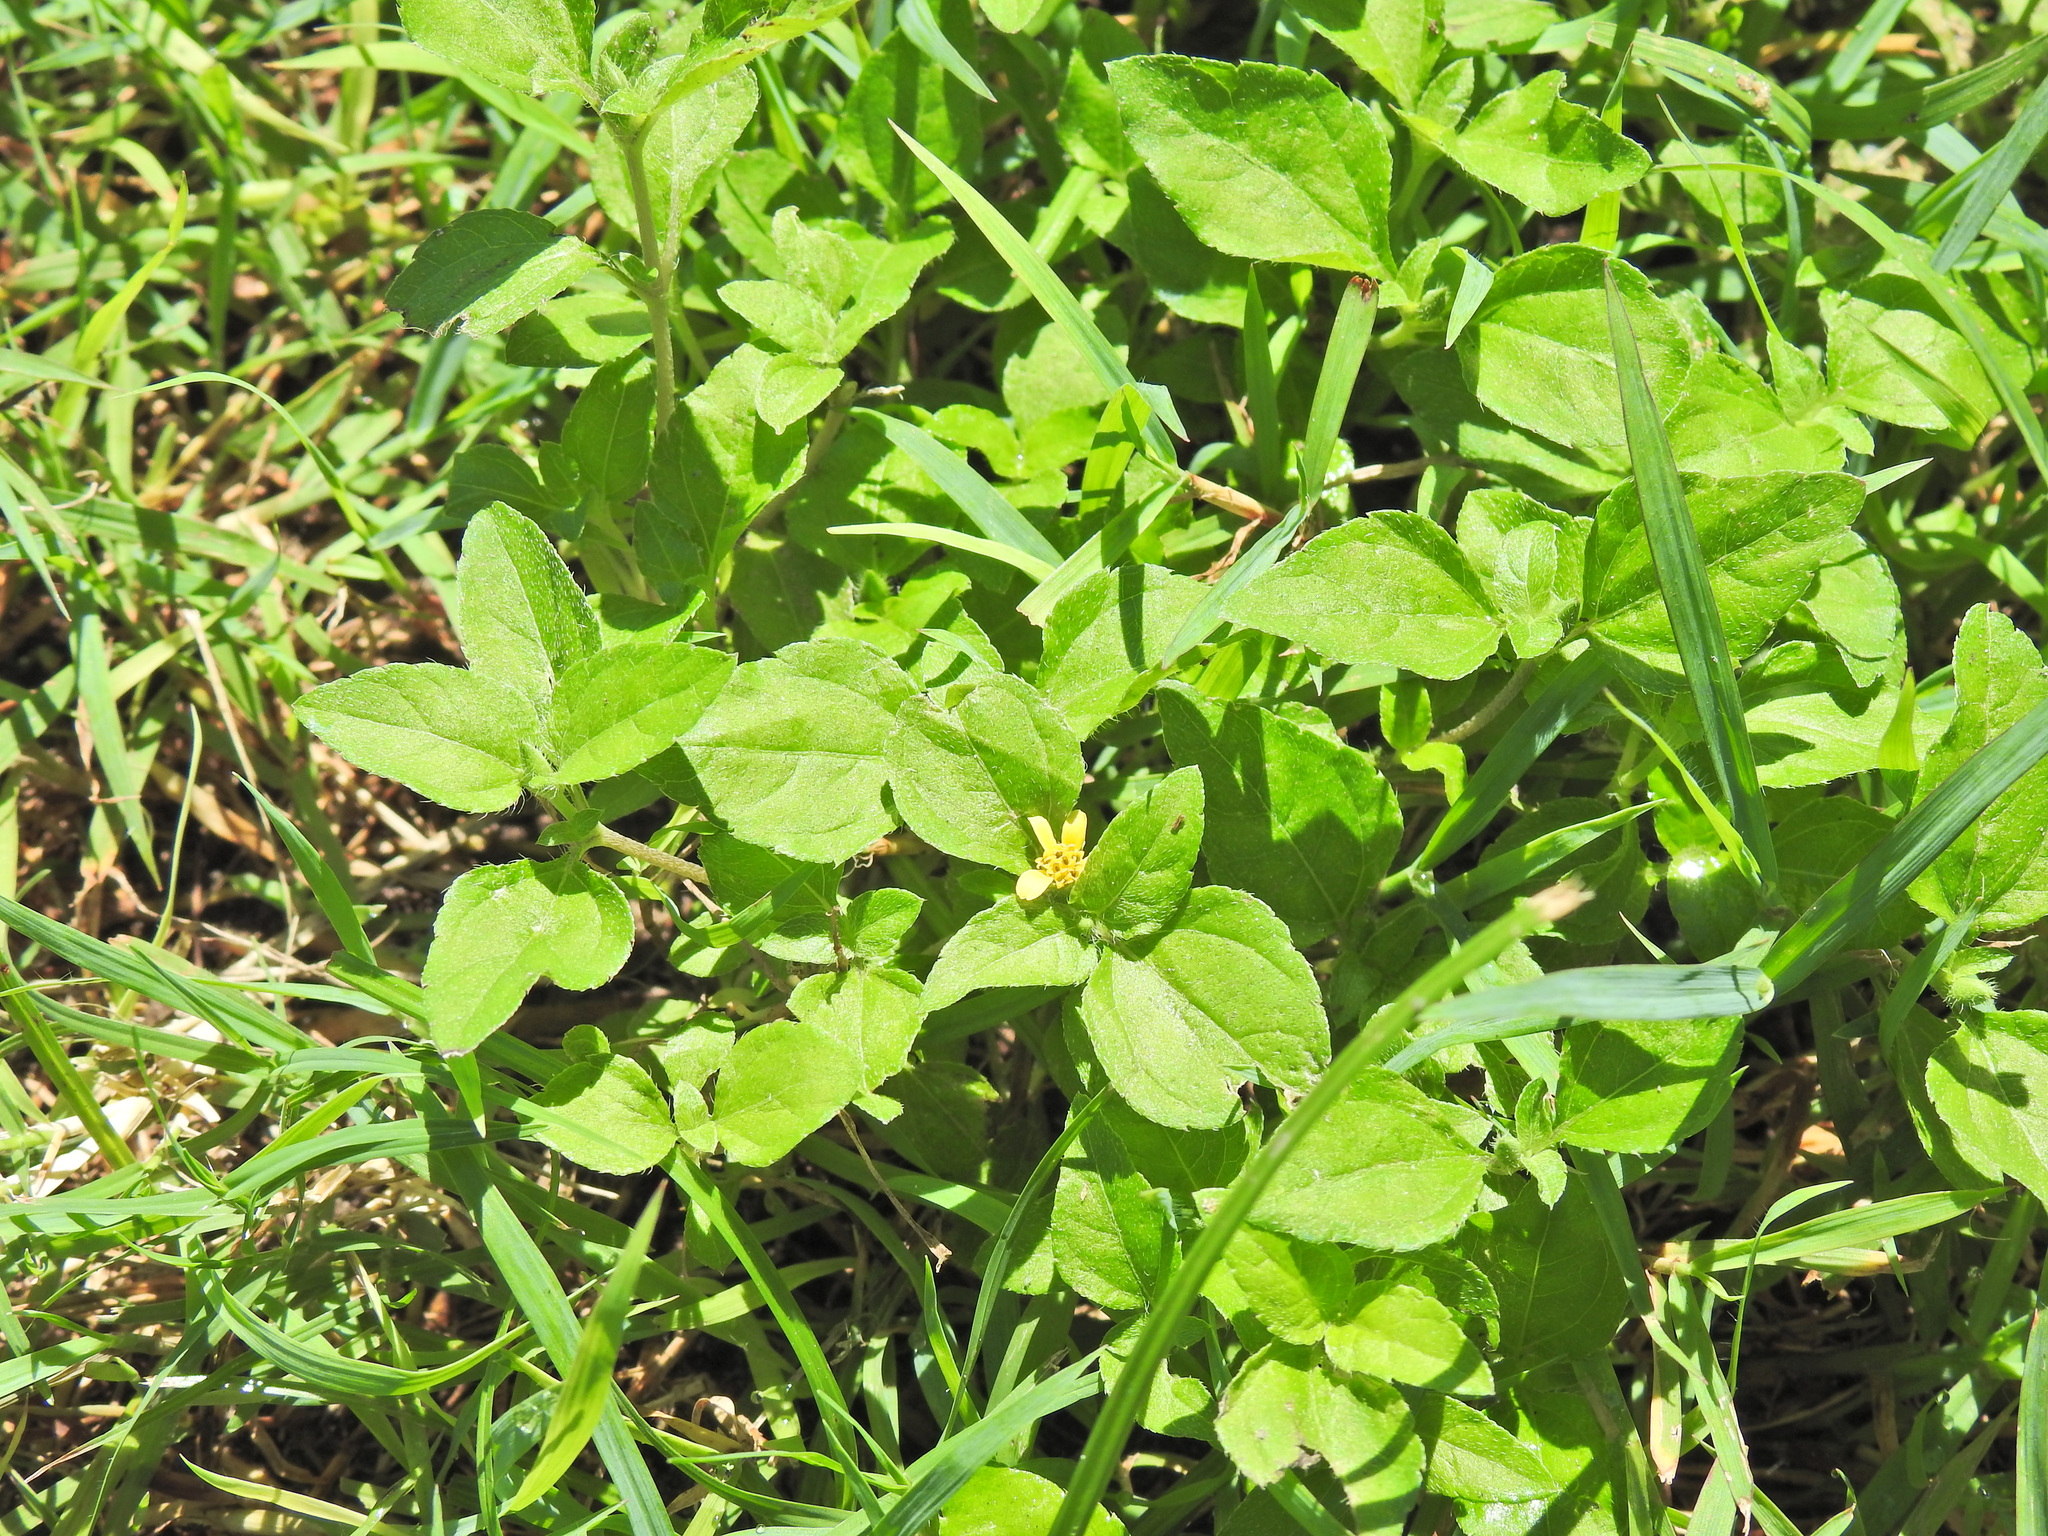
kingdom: Plantae
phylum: Tracheophyta
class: Magnoliopsida
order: Asterales
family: Asteraceae
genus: Calyptocarpus
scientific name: Calyptocarpus vialis
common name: Straggler daisy
